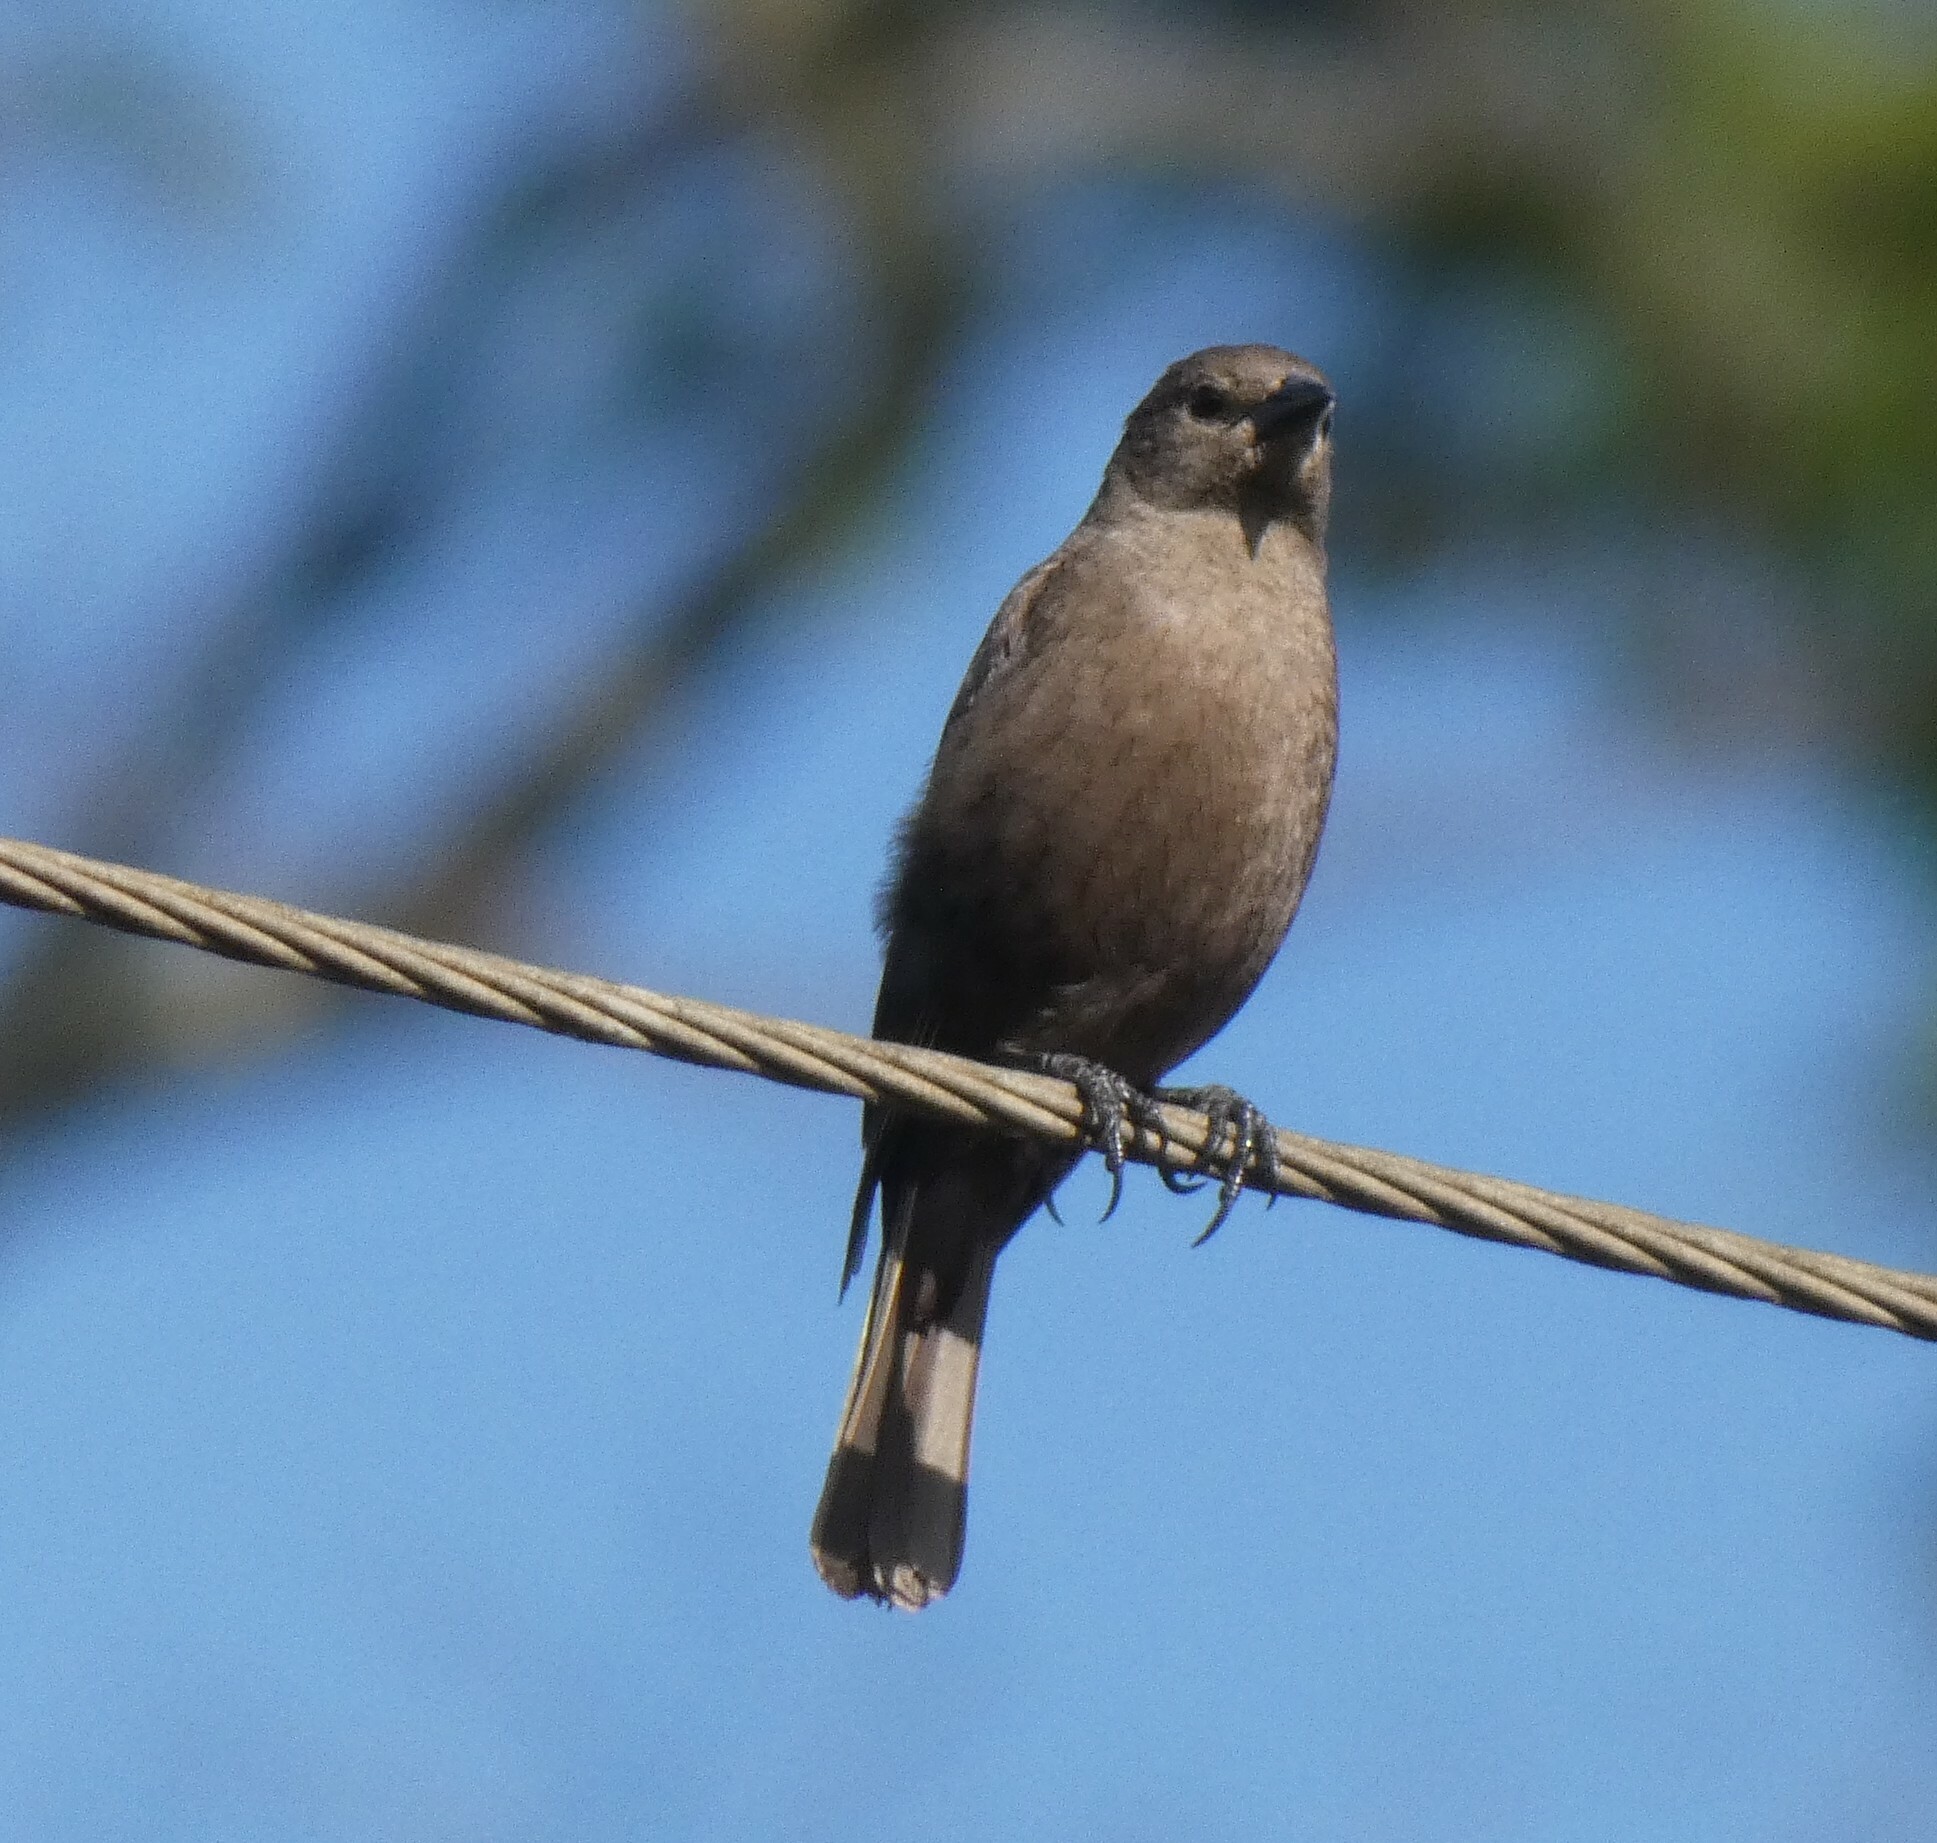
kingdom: Animalia
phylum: Chordata
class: Aves
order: Passeriformes
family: Icteridae
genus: Molothrus
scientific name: Molothrus bonariensis
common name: Shiny cowbird
